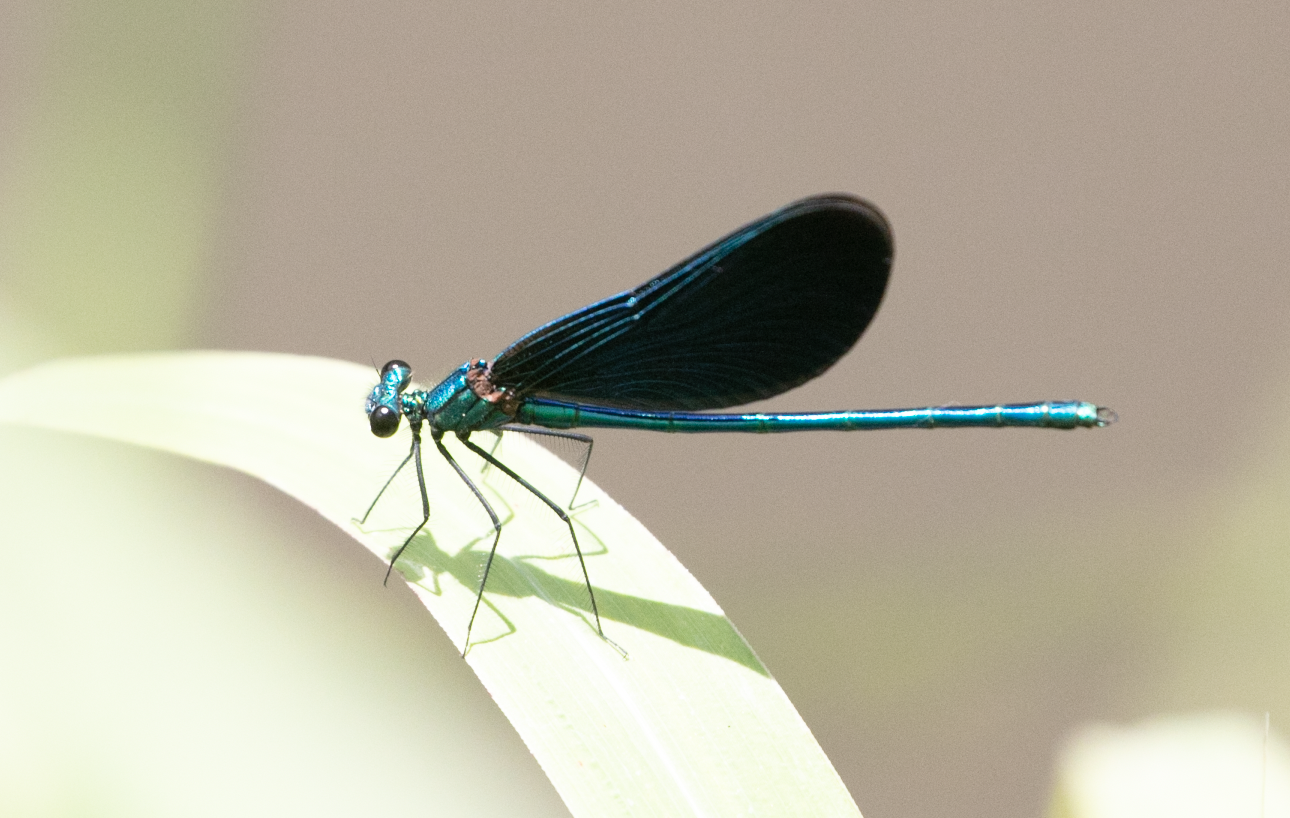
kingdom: Animalia
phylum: Arthropoda
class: Insecta
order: Odonata
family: Calopterygidae
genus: Calopteryx
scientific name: Calopteryx virgo
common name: Beautiful demoiselle
